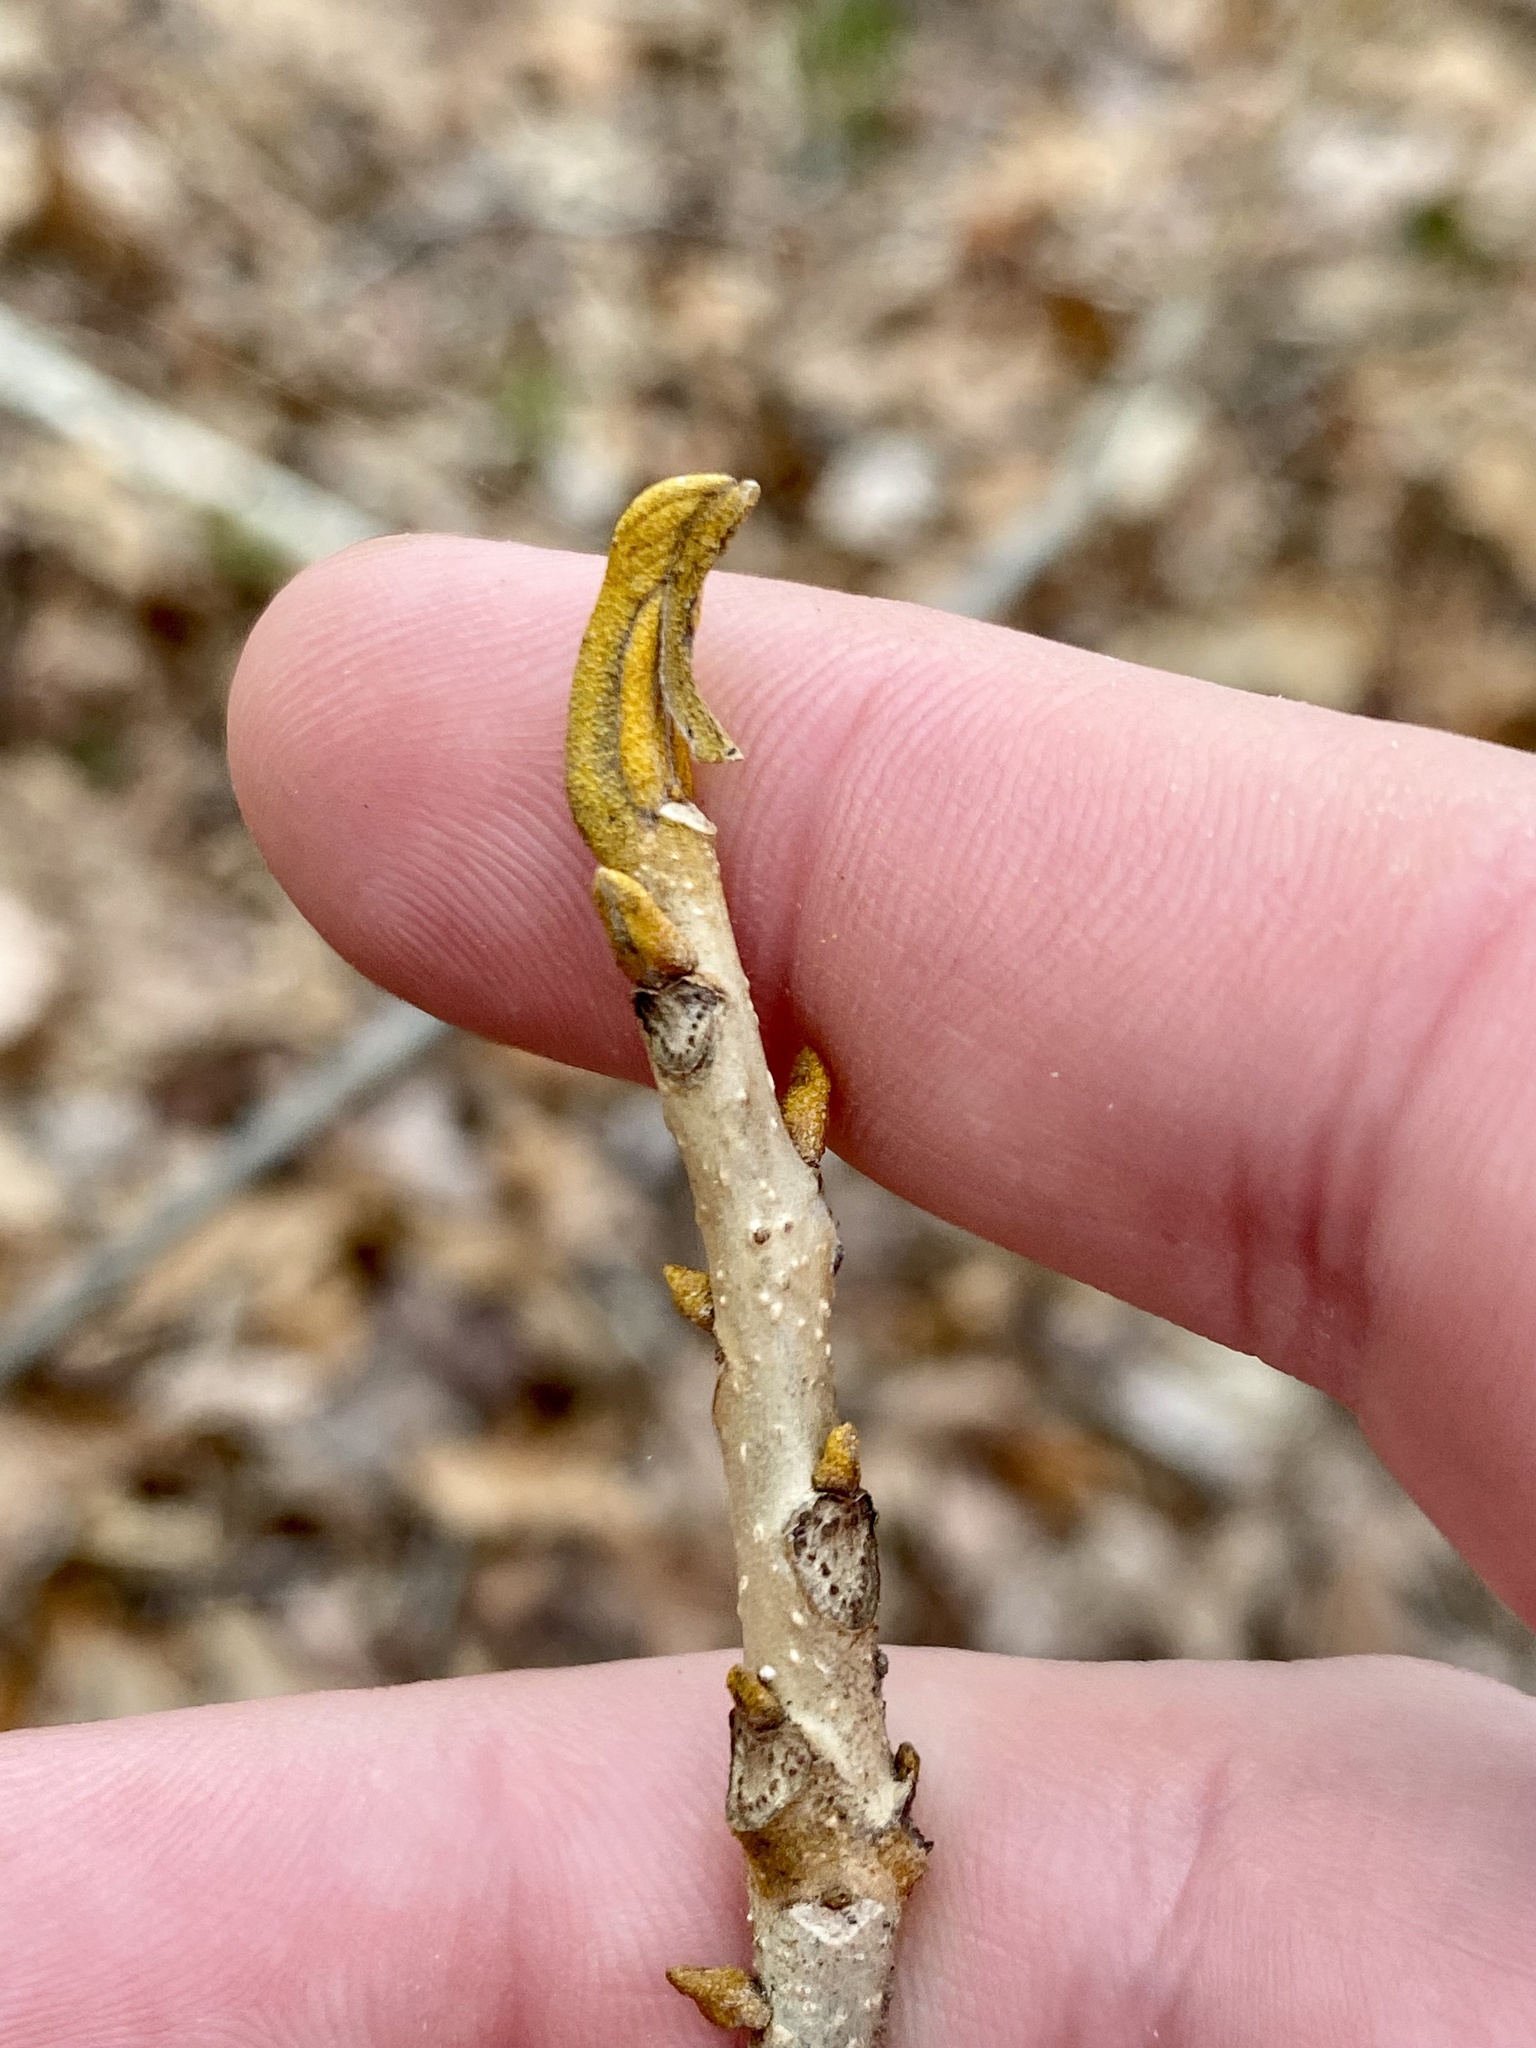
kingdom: Plantae
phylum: Tracheophyta
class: Magnoliopsida
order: Fagales
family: Juglandaceae
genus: Carya
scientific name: Carya cordiformis
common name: Bitternut hickory
